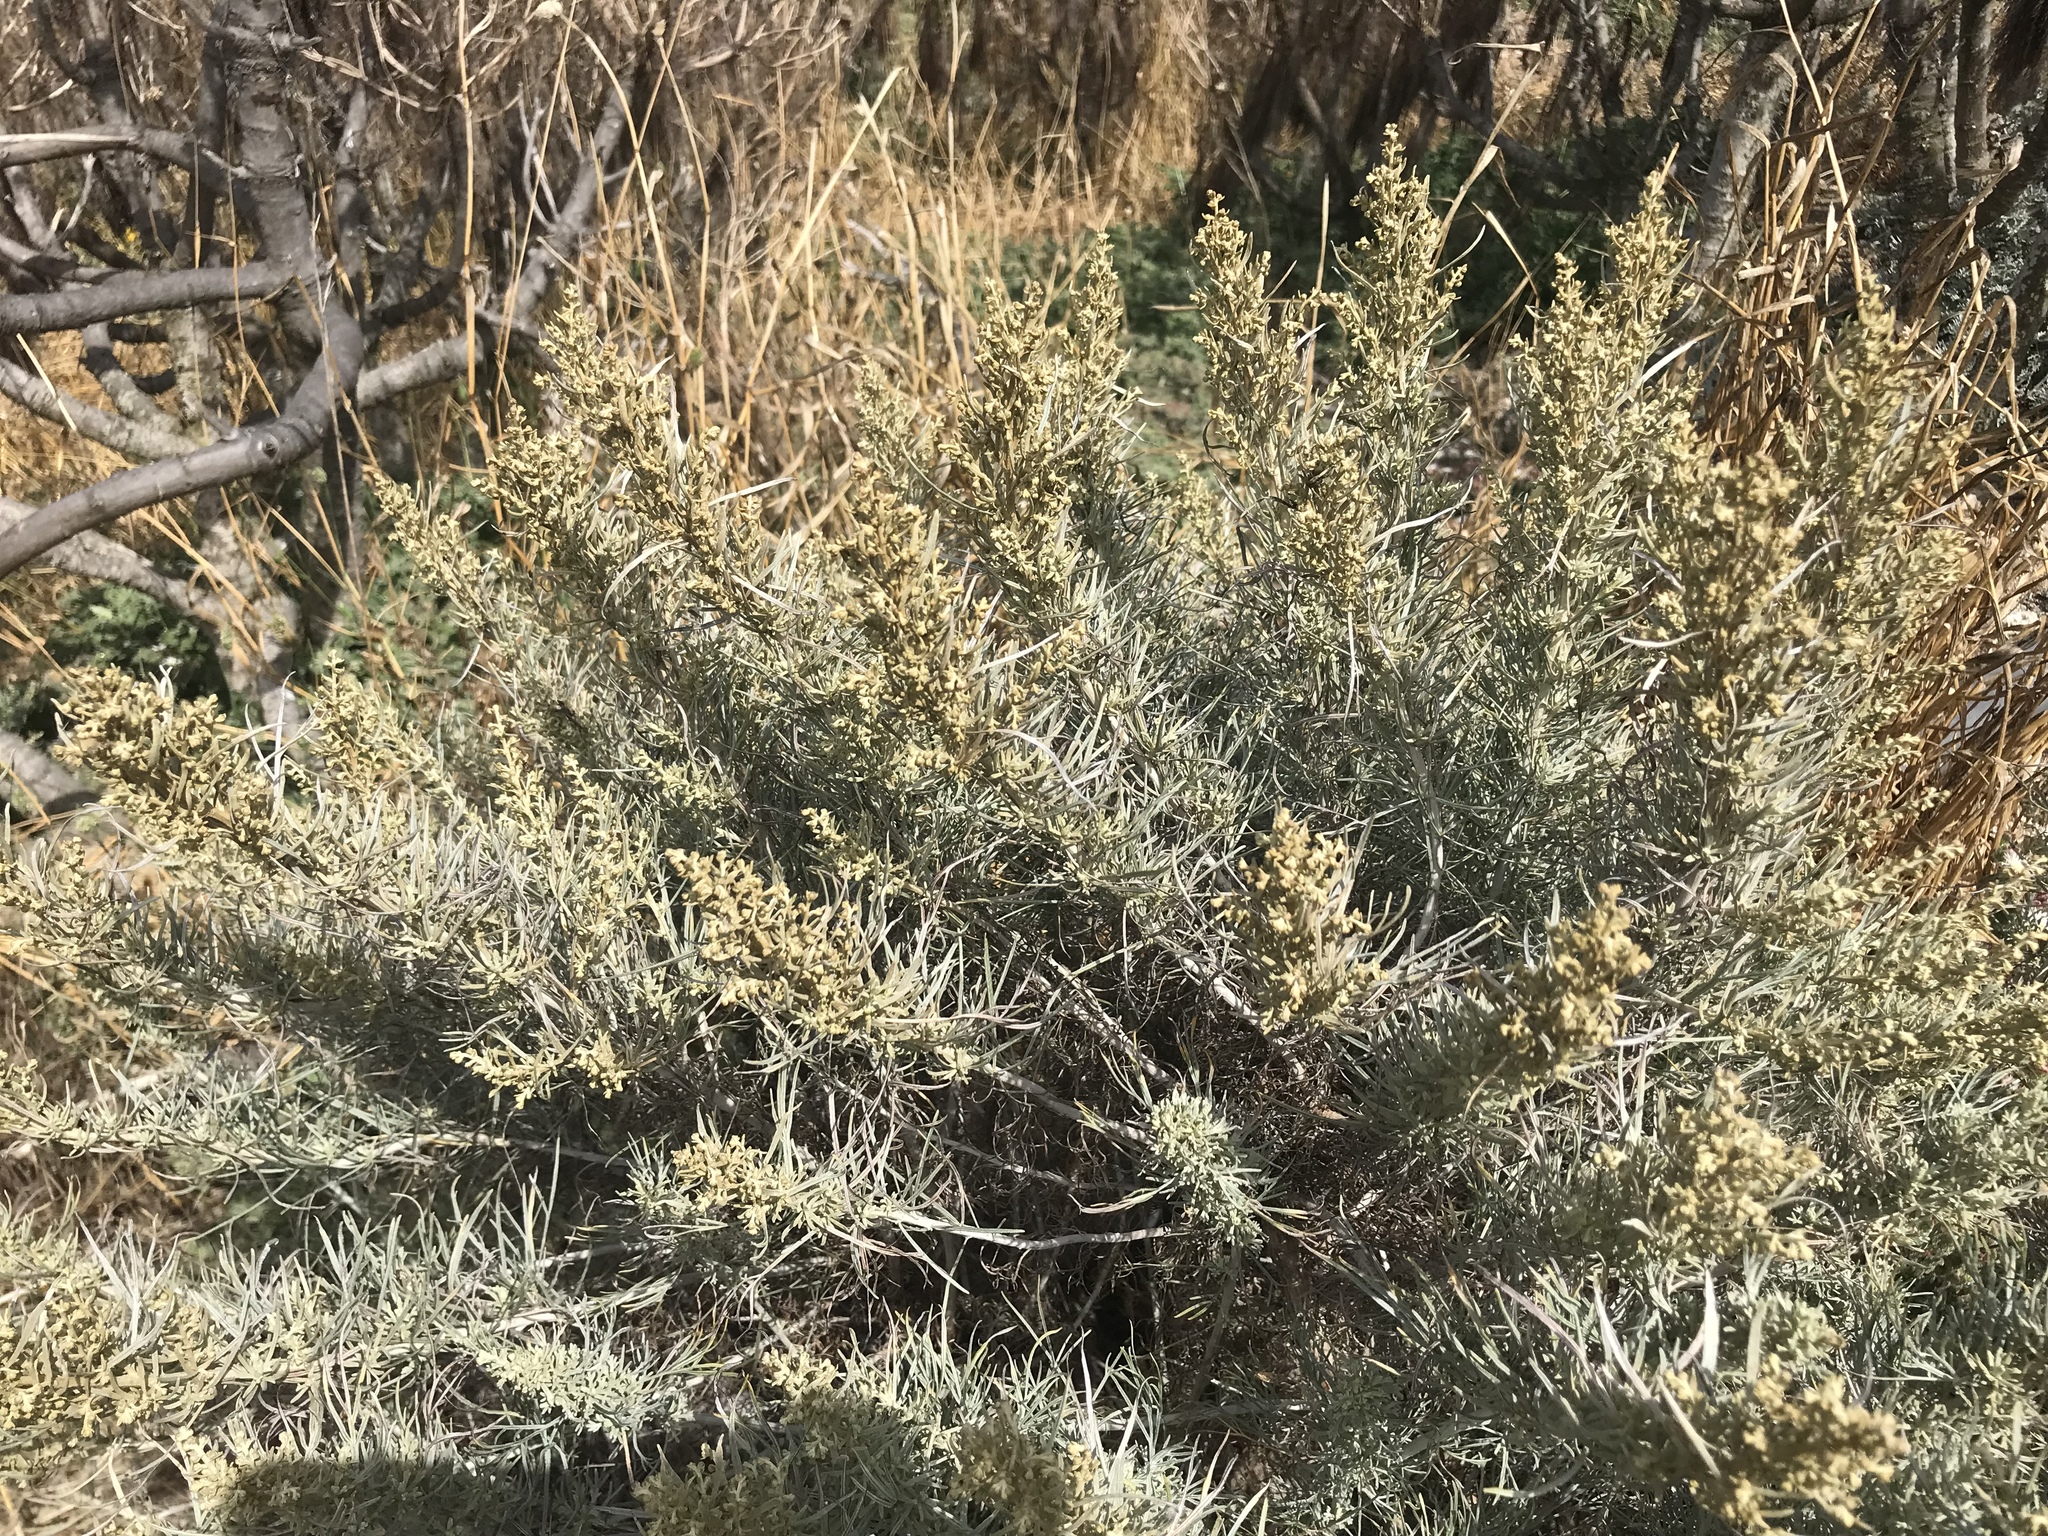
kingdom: Plantae
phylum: Tracheophyta
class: Magnoliopsida
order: Asterales
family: Asteraceae
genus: Artemisia
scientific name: Artemisia nesiotica
